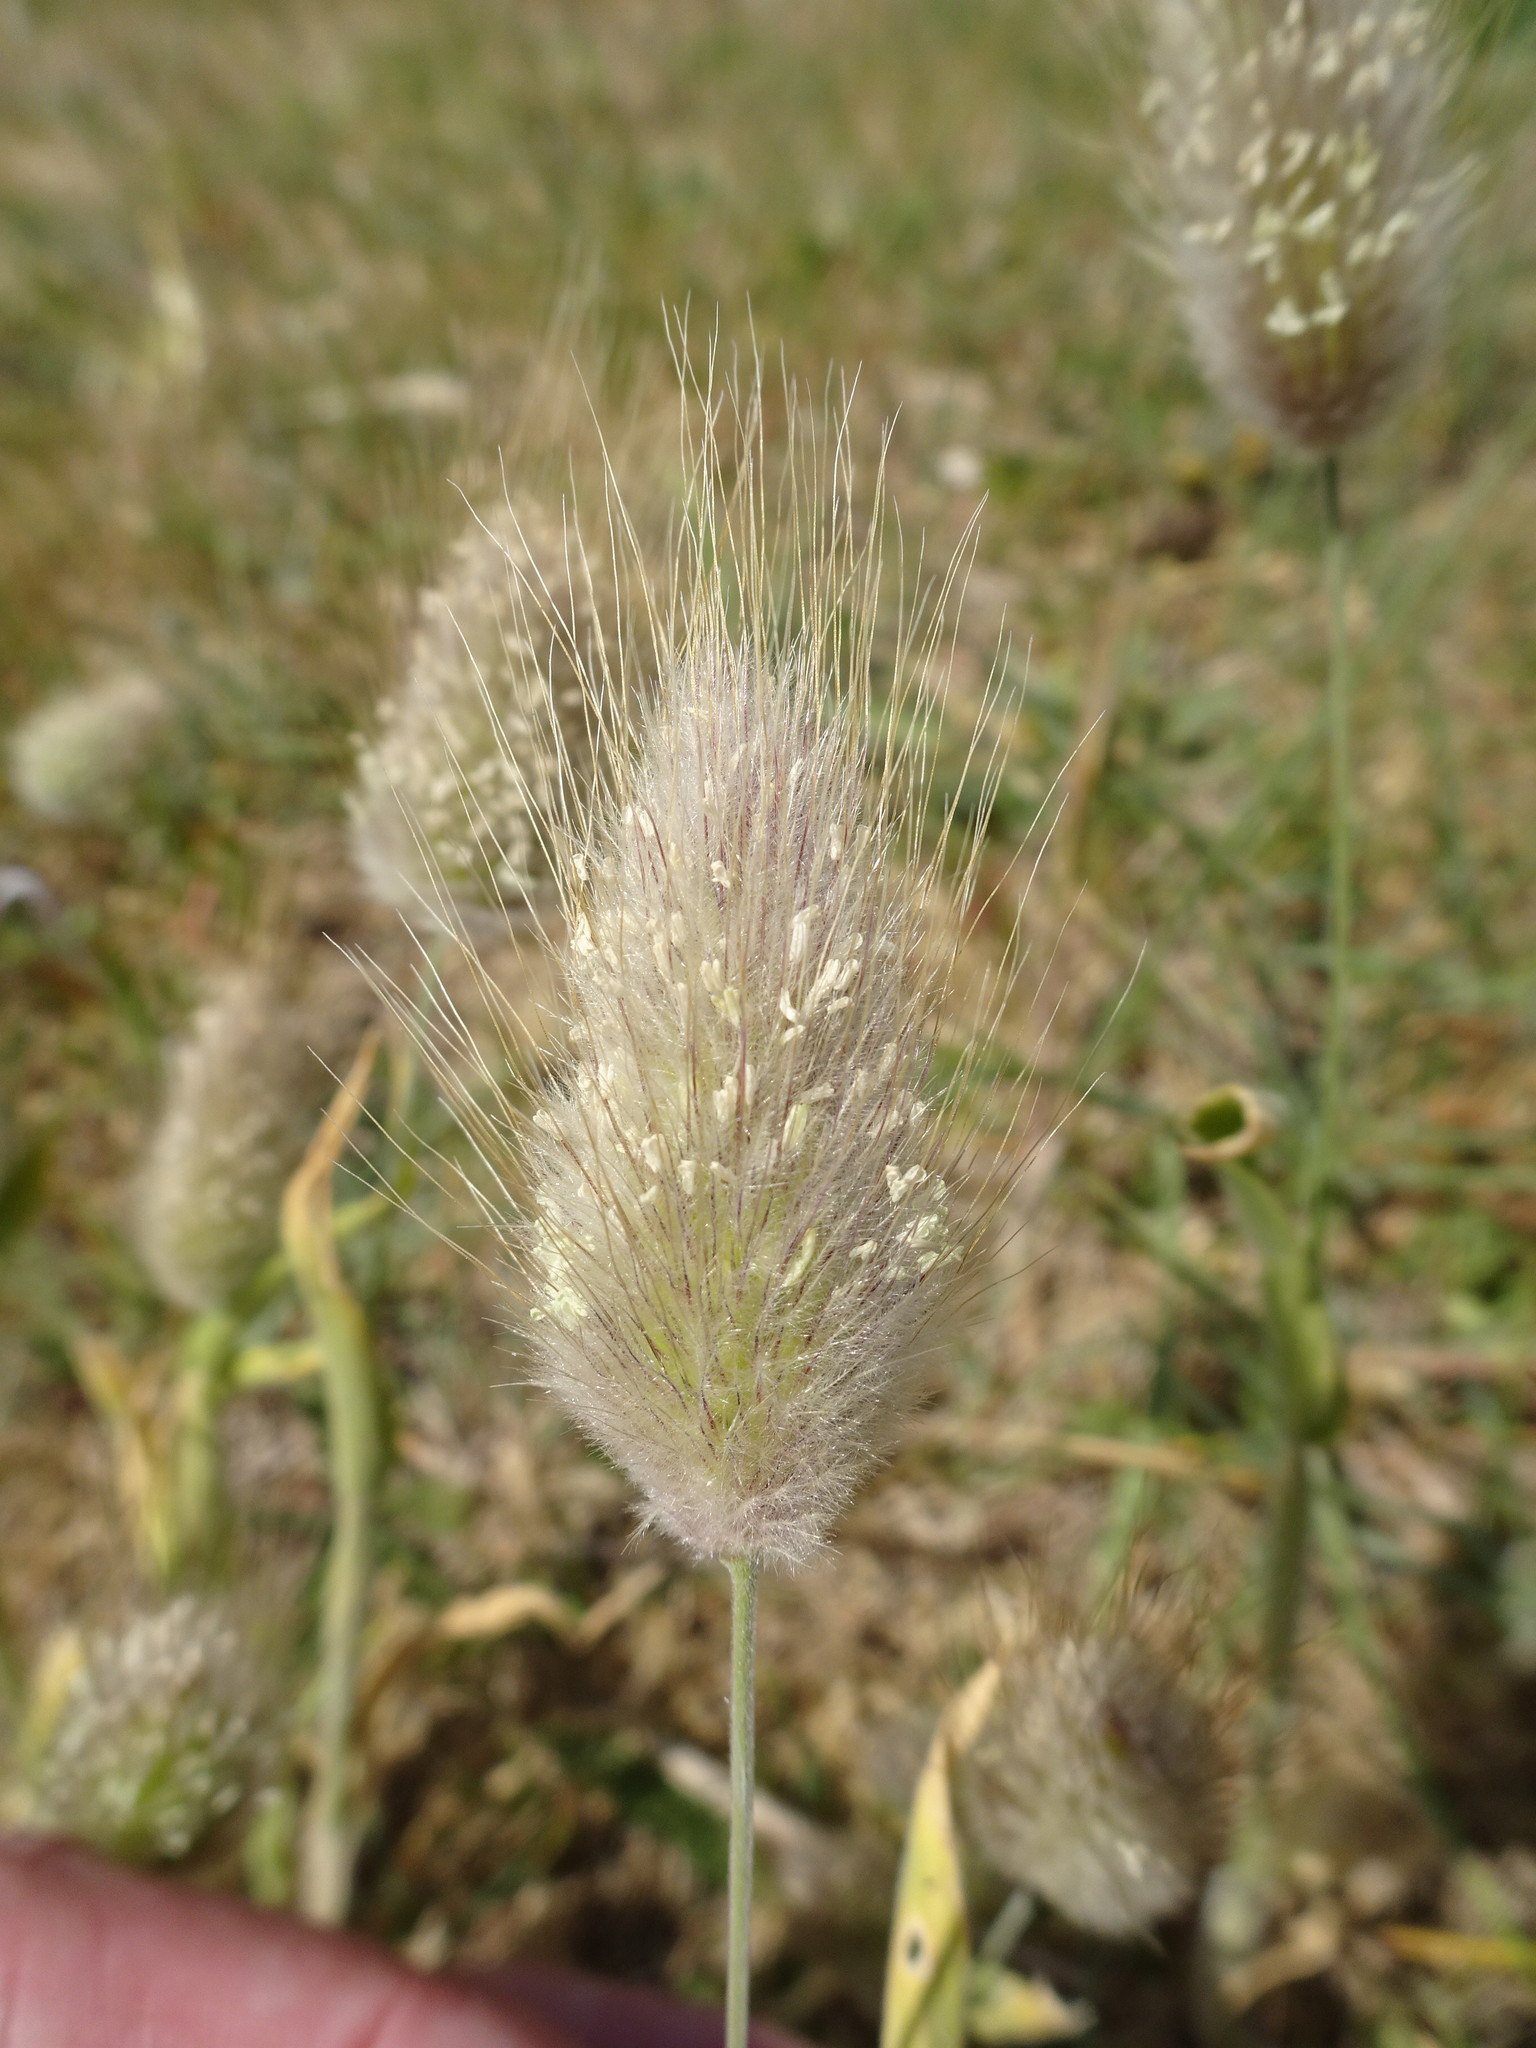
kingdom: Plantae
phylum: Tracheophyta
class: Liliopsida
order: Poales
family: Poaceae
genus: Lagurus
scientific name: Lagurus ovatus
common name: Hare's-tail
